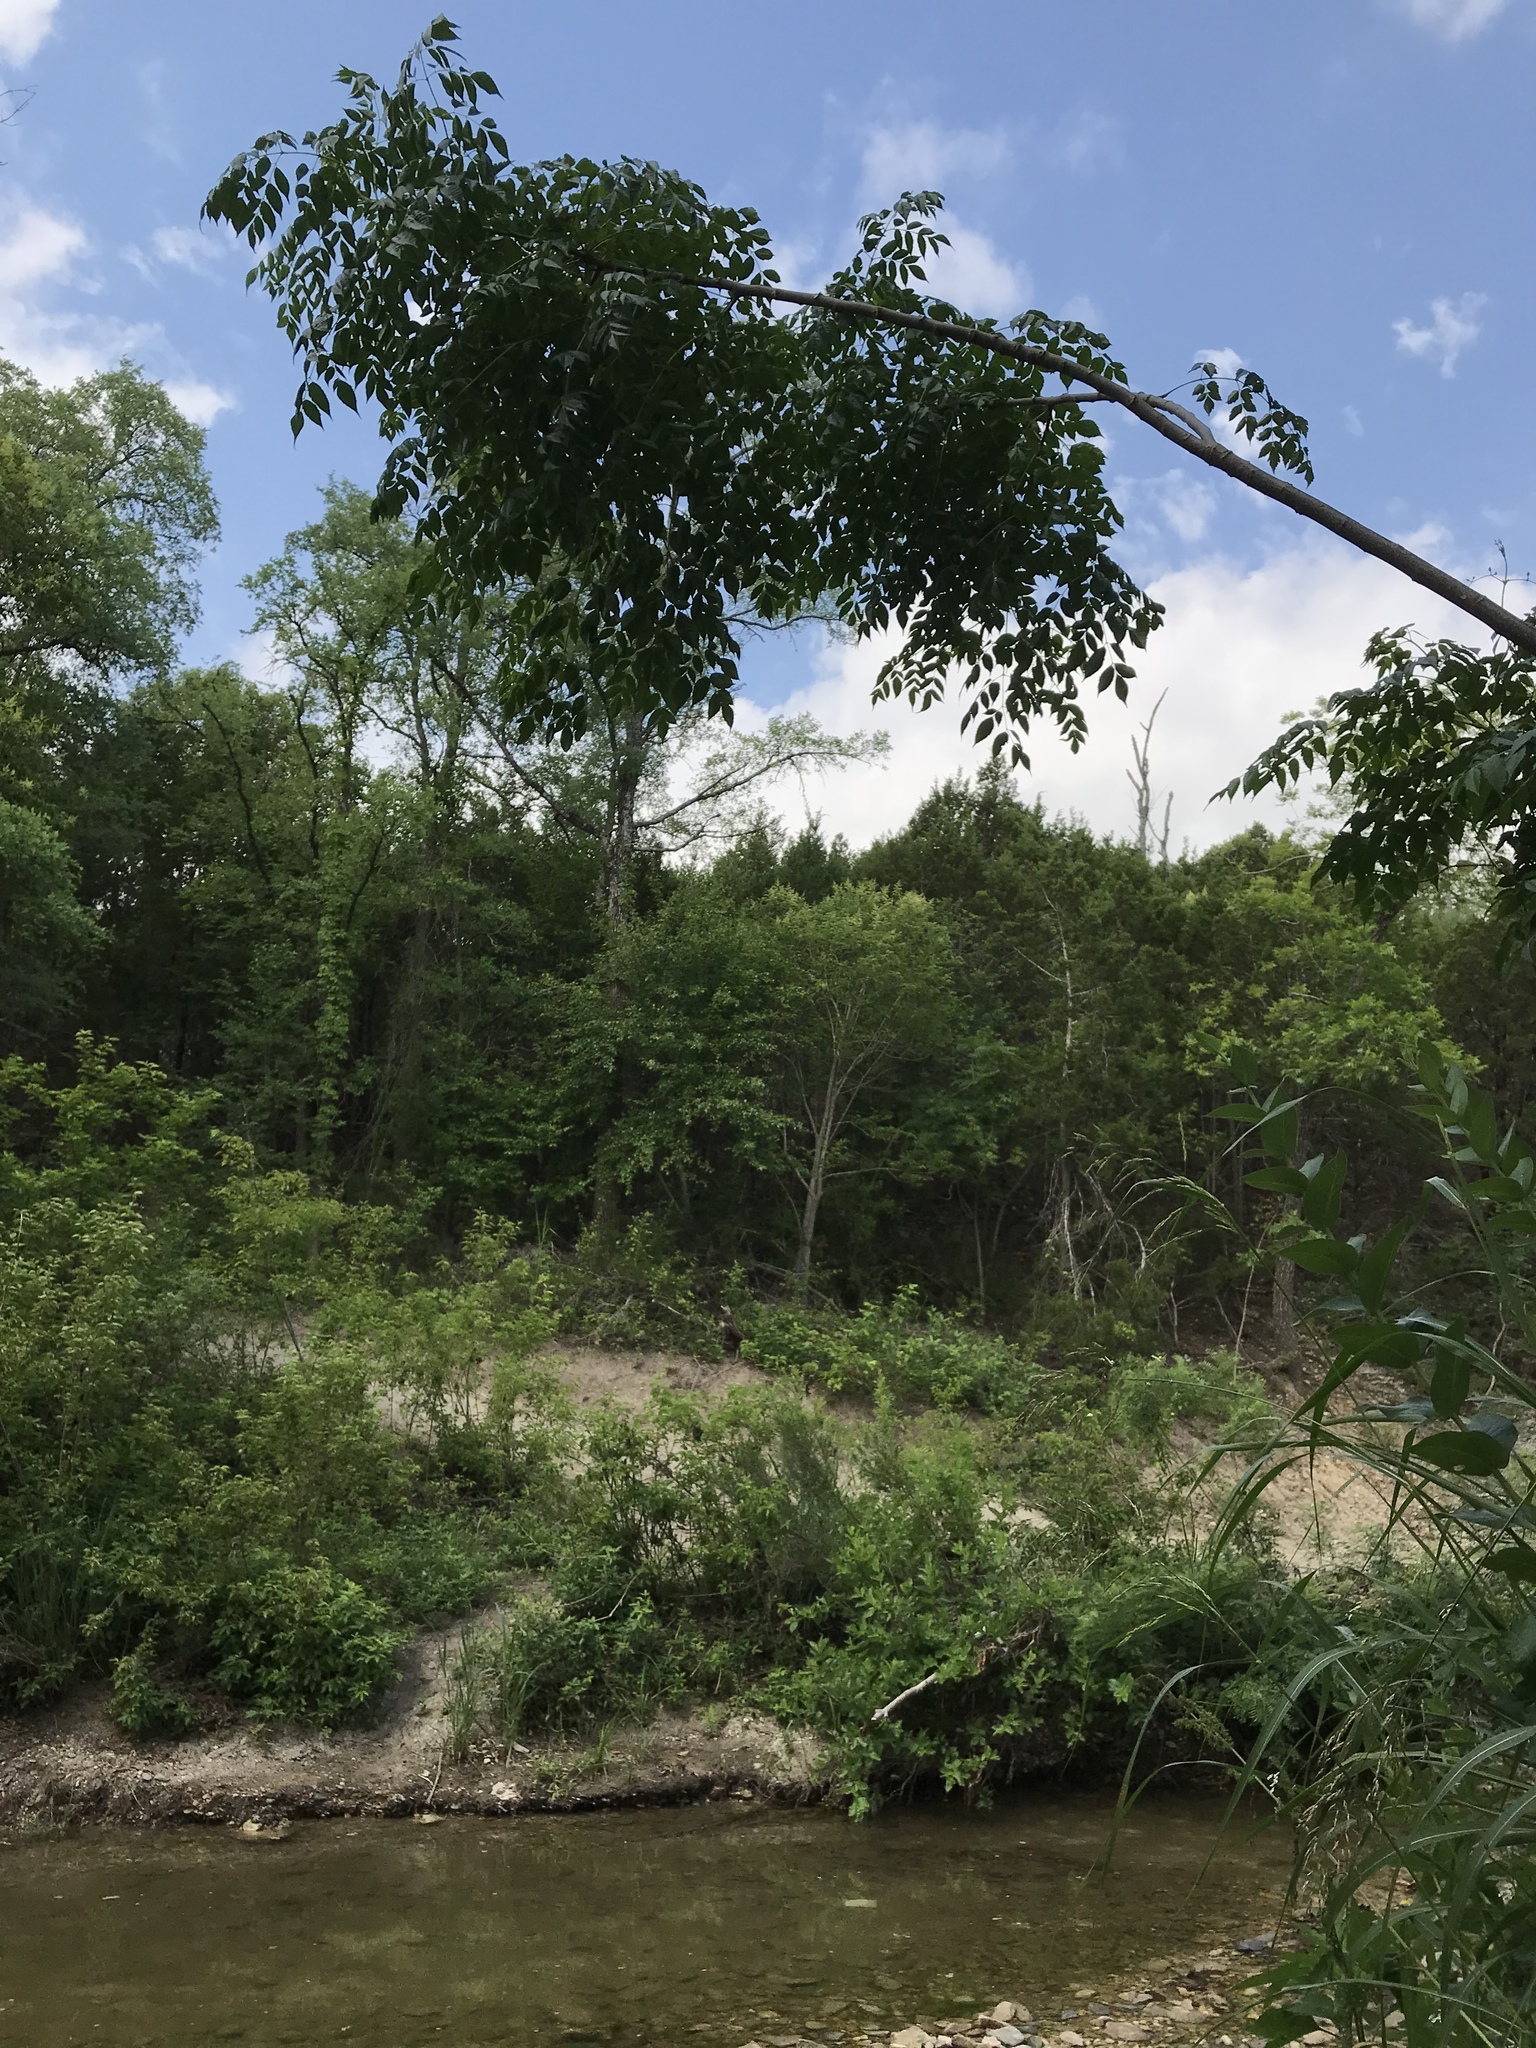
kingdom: Plantae
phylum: Tracheophyta
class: Magnoliopsida
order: Sapindales
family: Meliaceae
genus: Melia
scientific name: Melia azedarach
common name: Chinaberrytree
